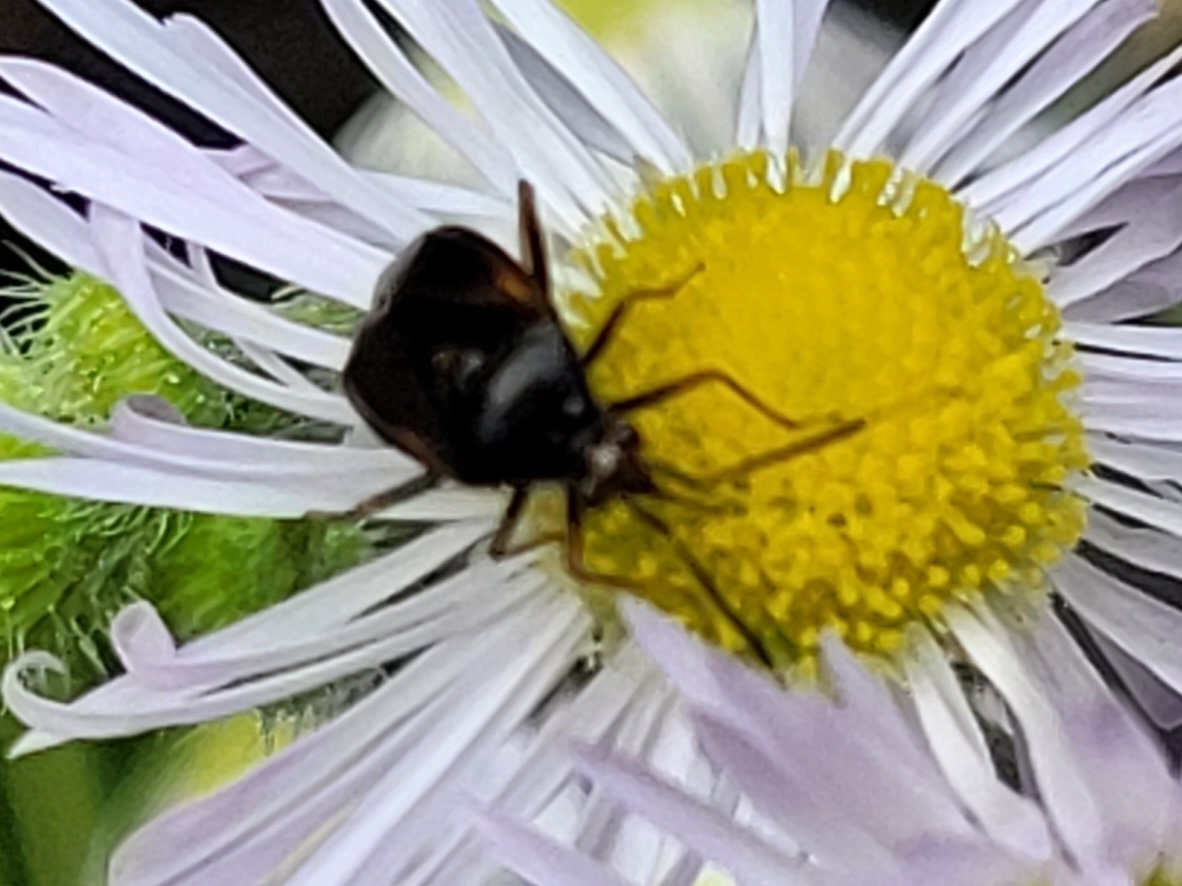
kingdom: Animalia
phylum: Arthropoda
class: Insecta
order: Hemiptera
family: Miridae
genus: Deraeocoris
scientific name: Deraeocoris ruber
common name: Plant bug
